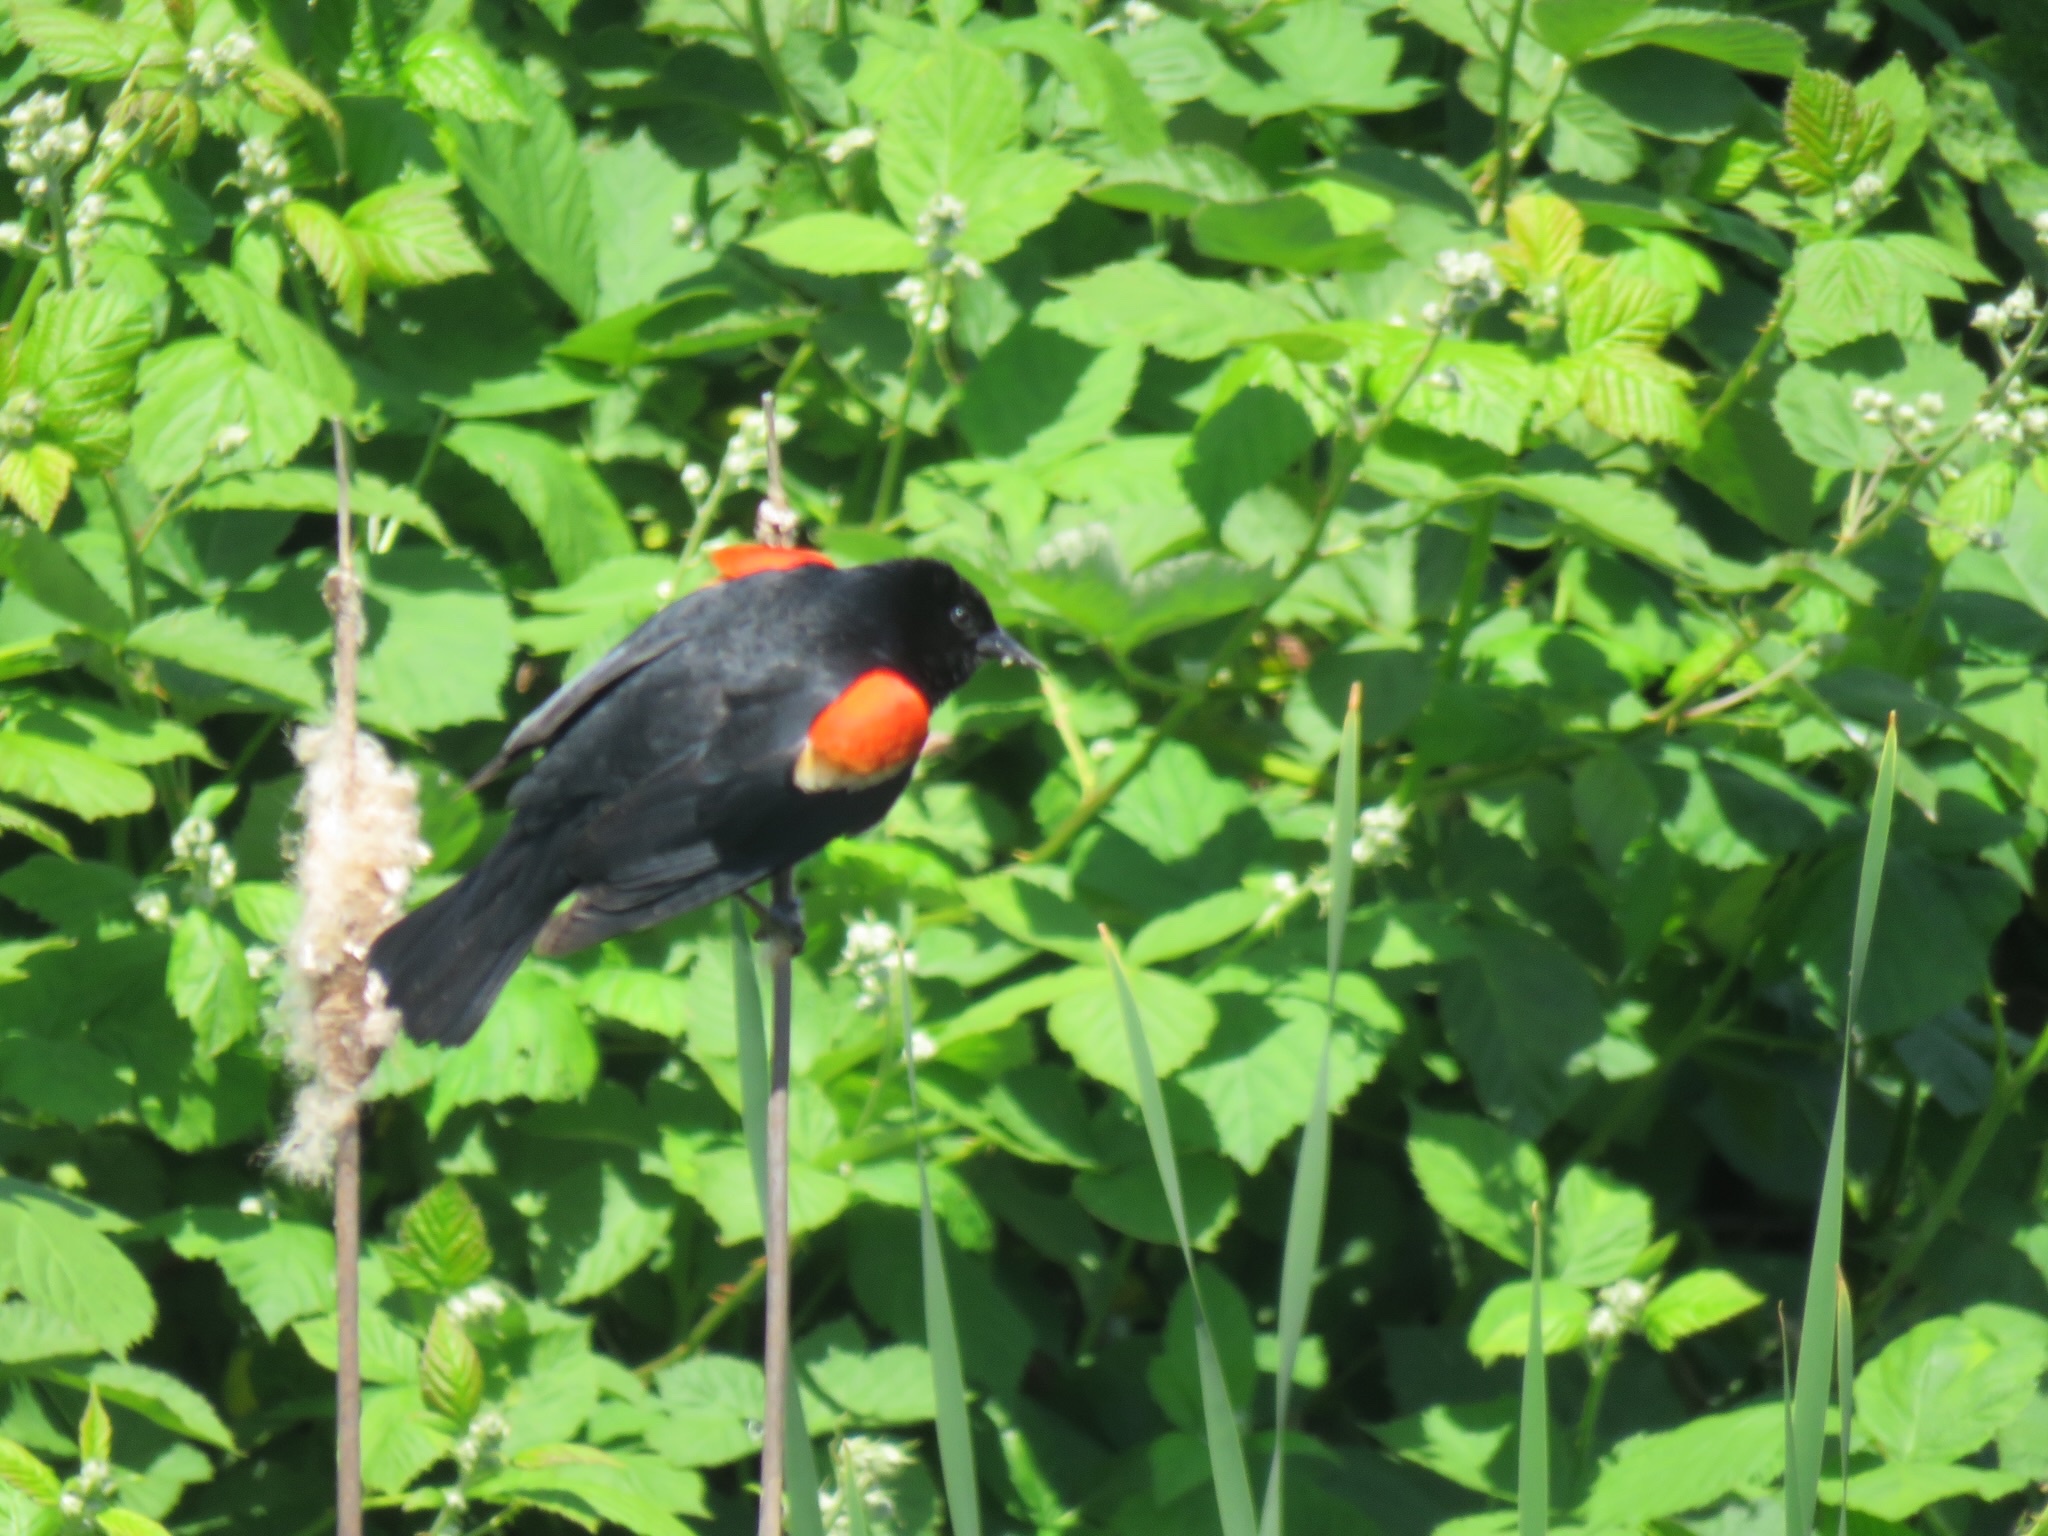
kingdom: Animalia
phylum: Chordata
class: Aves
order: Passeriformes
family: Icteridae
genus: Agelaius
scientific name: Agelaius phoeniceus
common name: Red-winged blackbird
